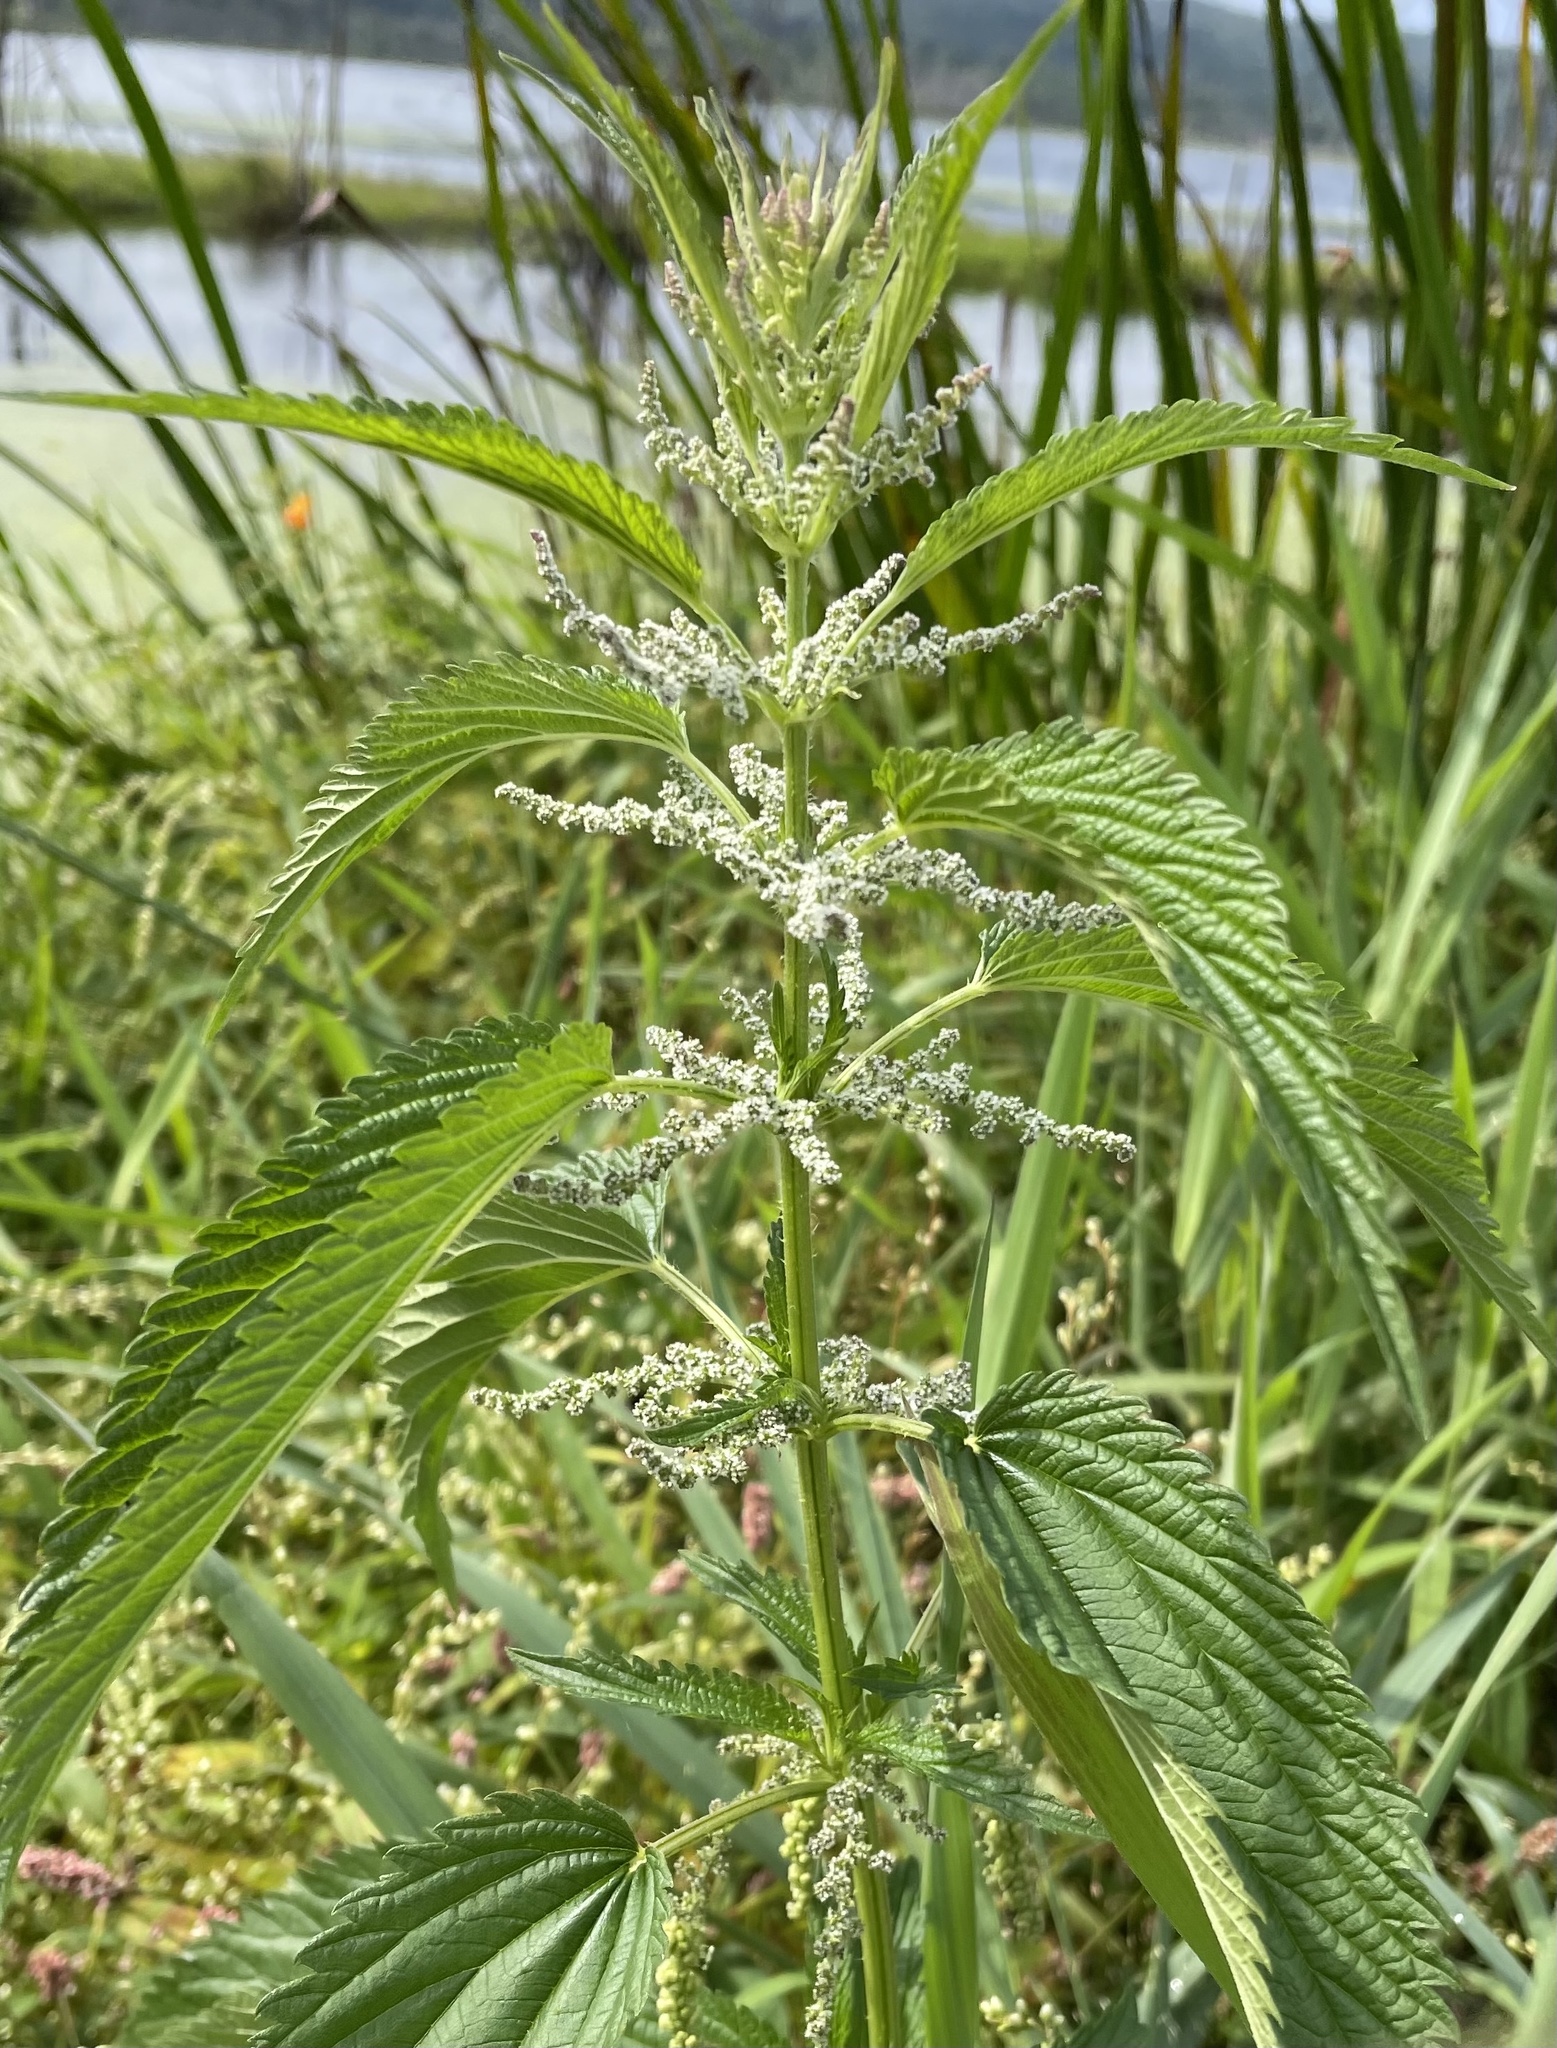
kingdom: Plantae
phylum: Tracheophyta
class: Magnoliopsida
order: Rosales
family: Urticaceae
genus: Urtica
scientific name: Urtica dioica
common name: Common nettle
